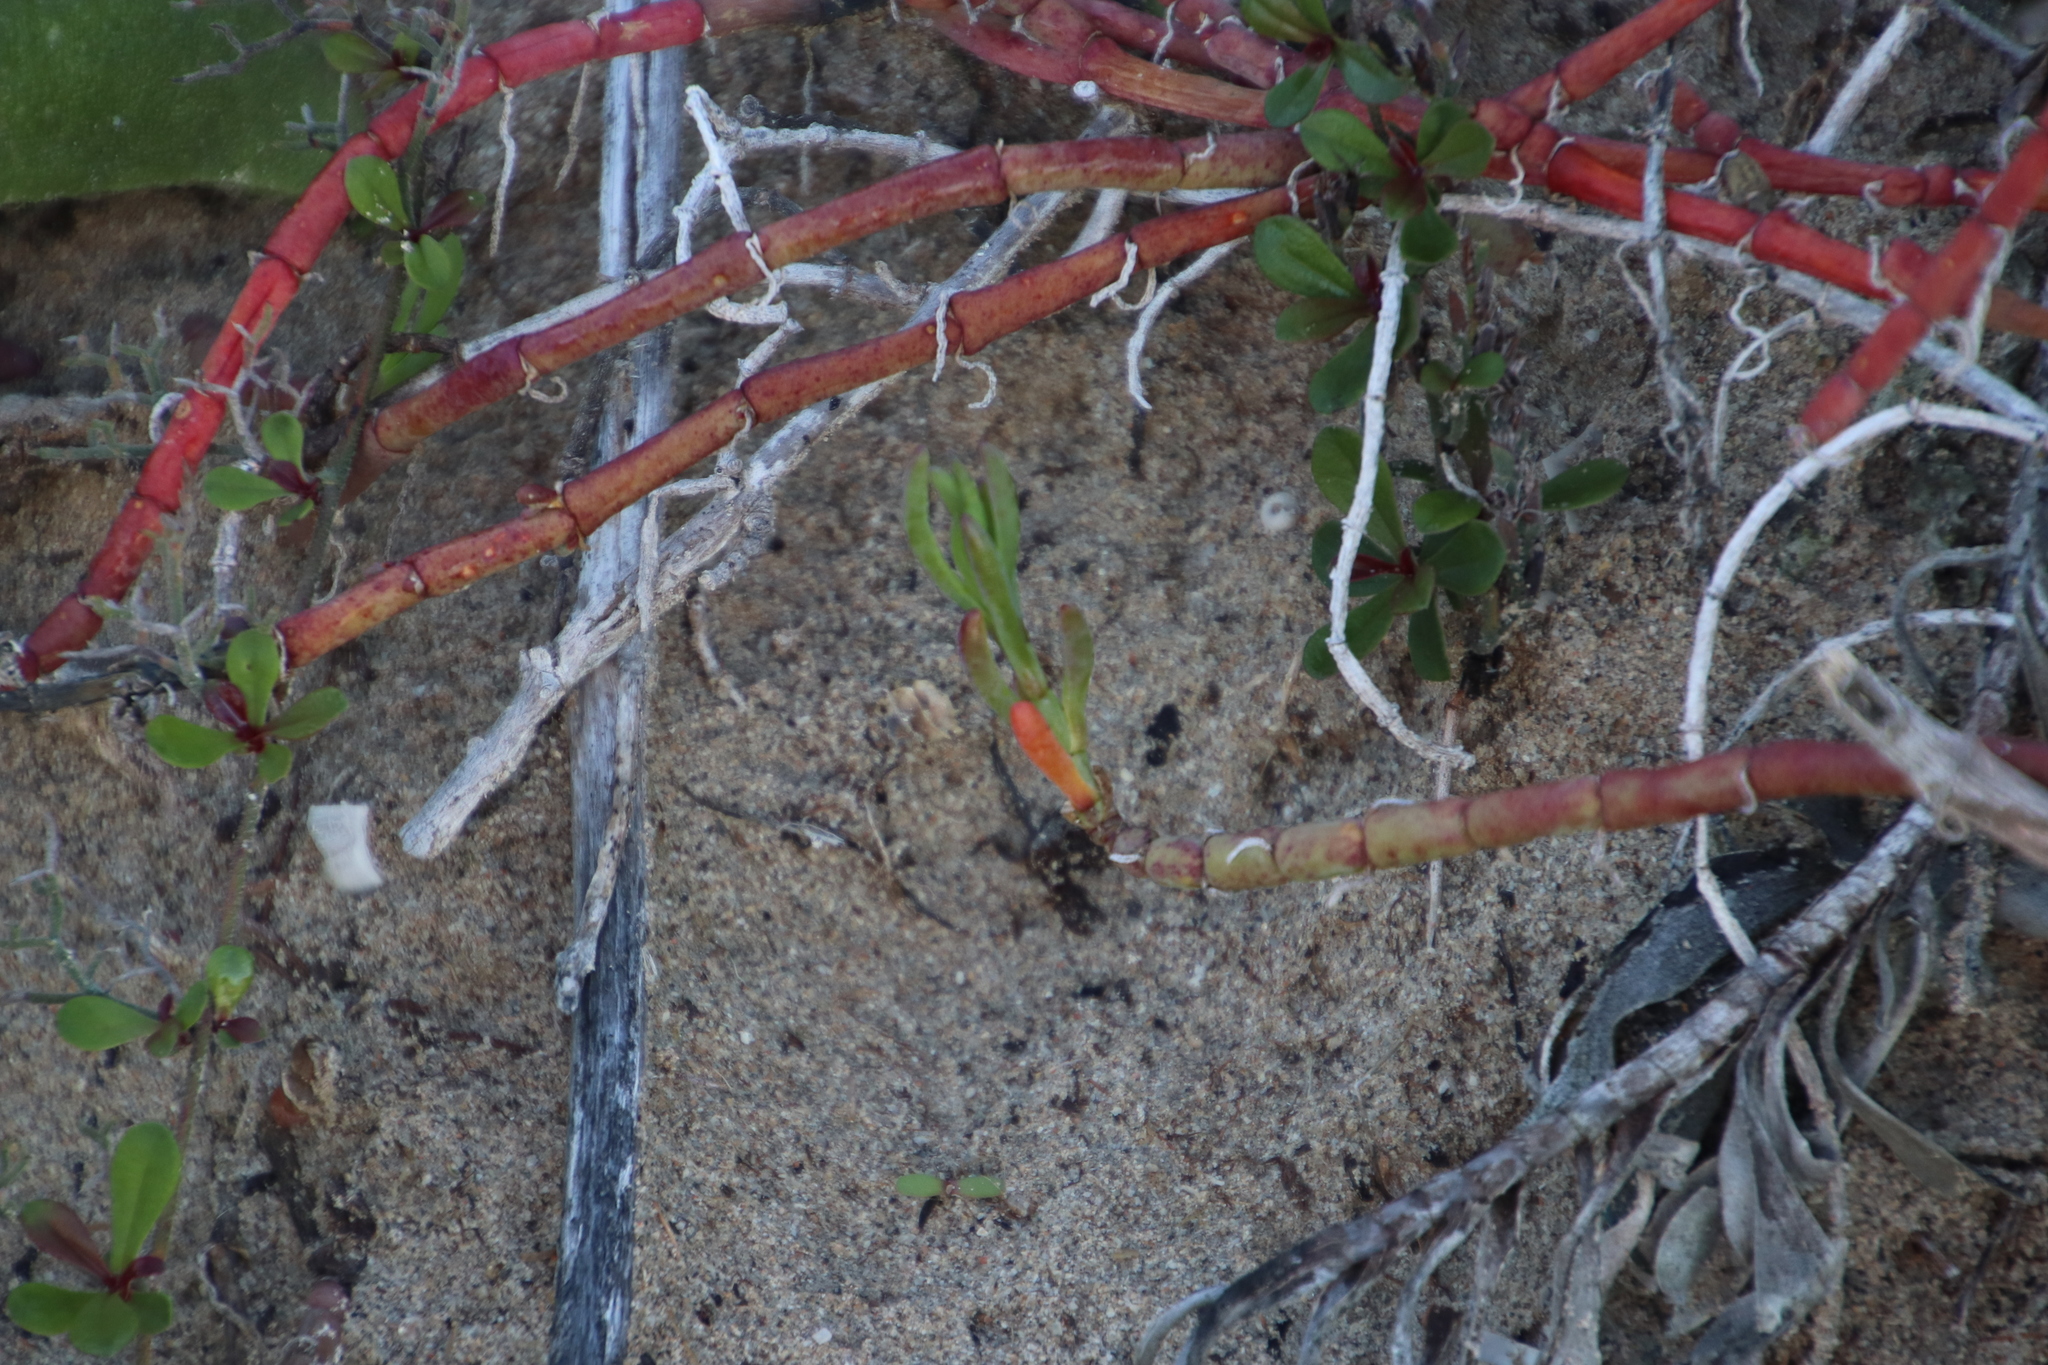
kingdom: Plantae
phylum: Tracheophyta
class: Magnoliopsida
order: Caryophyllales
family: Aizoaceae
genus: Mesembryanthemum
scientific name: Mesembryanthemum dinteri
